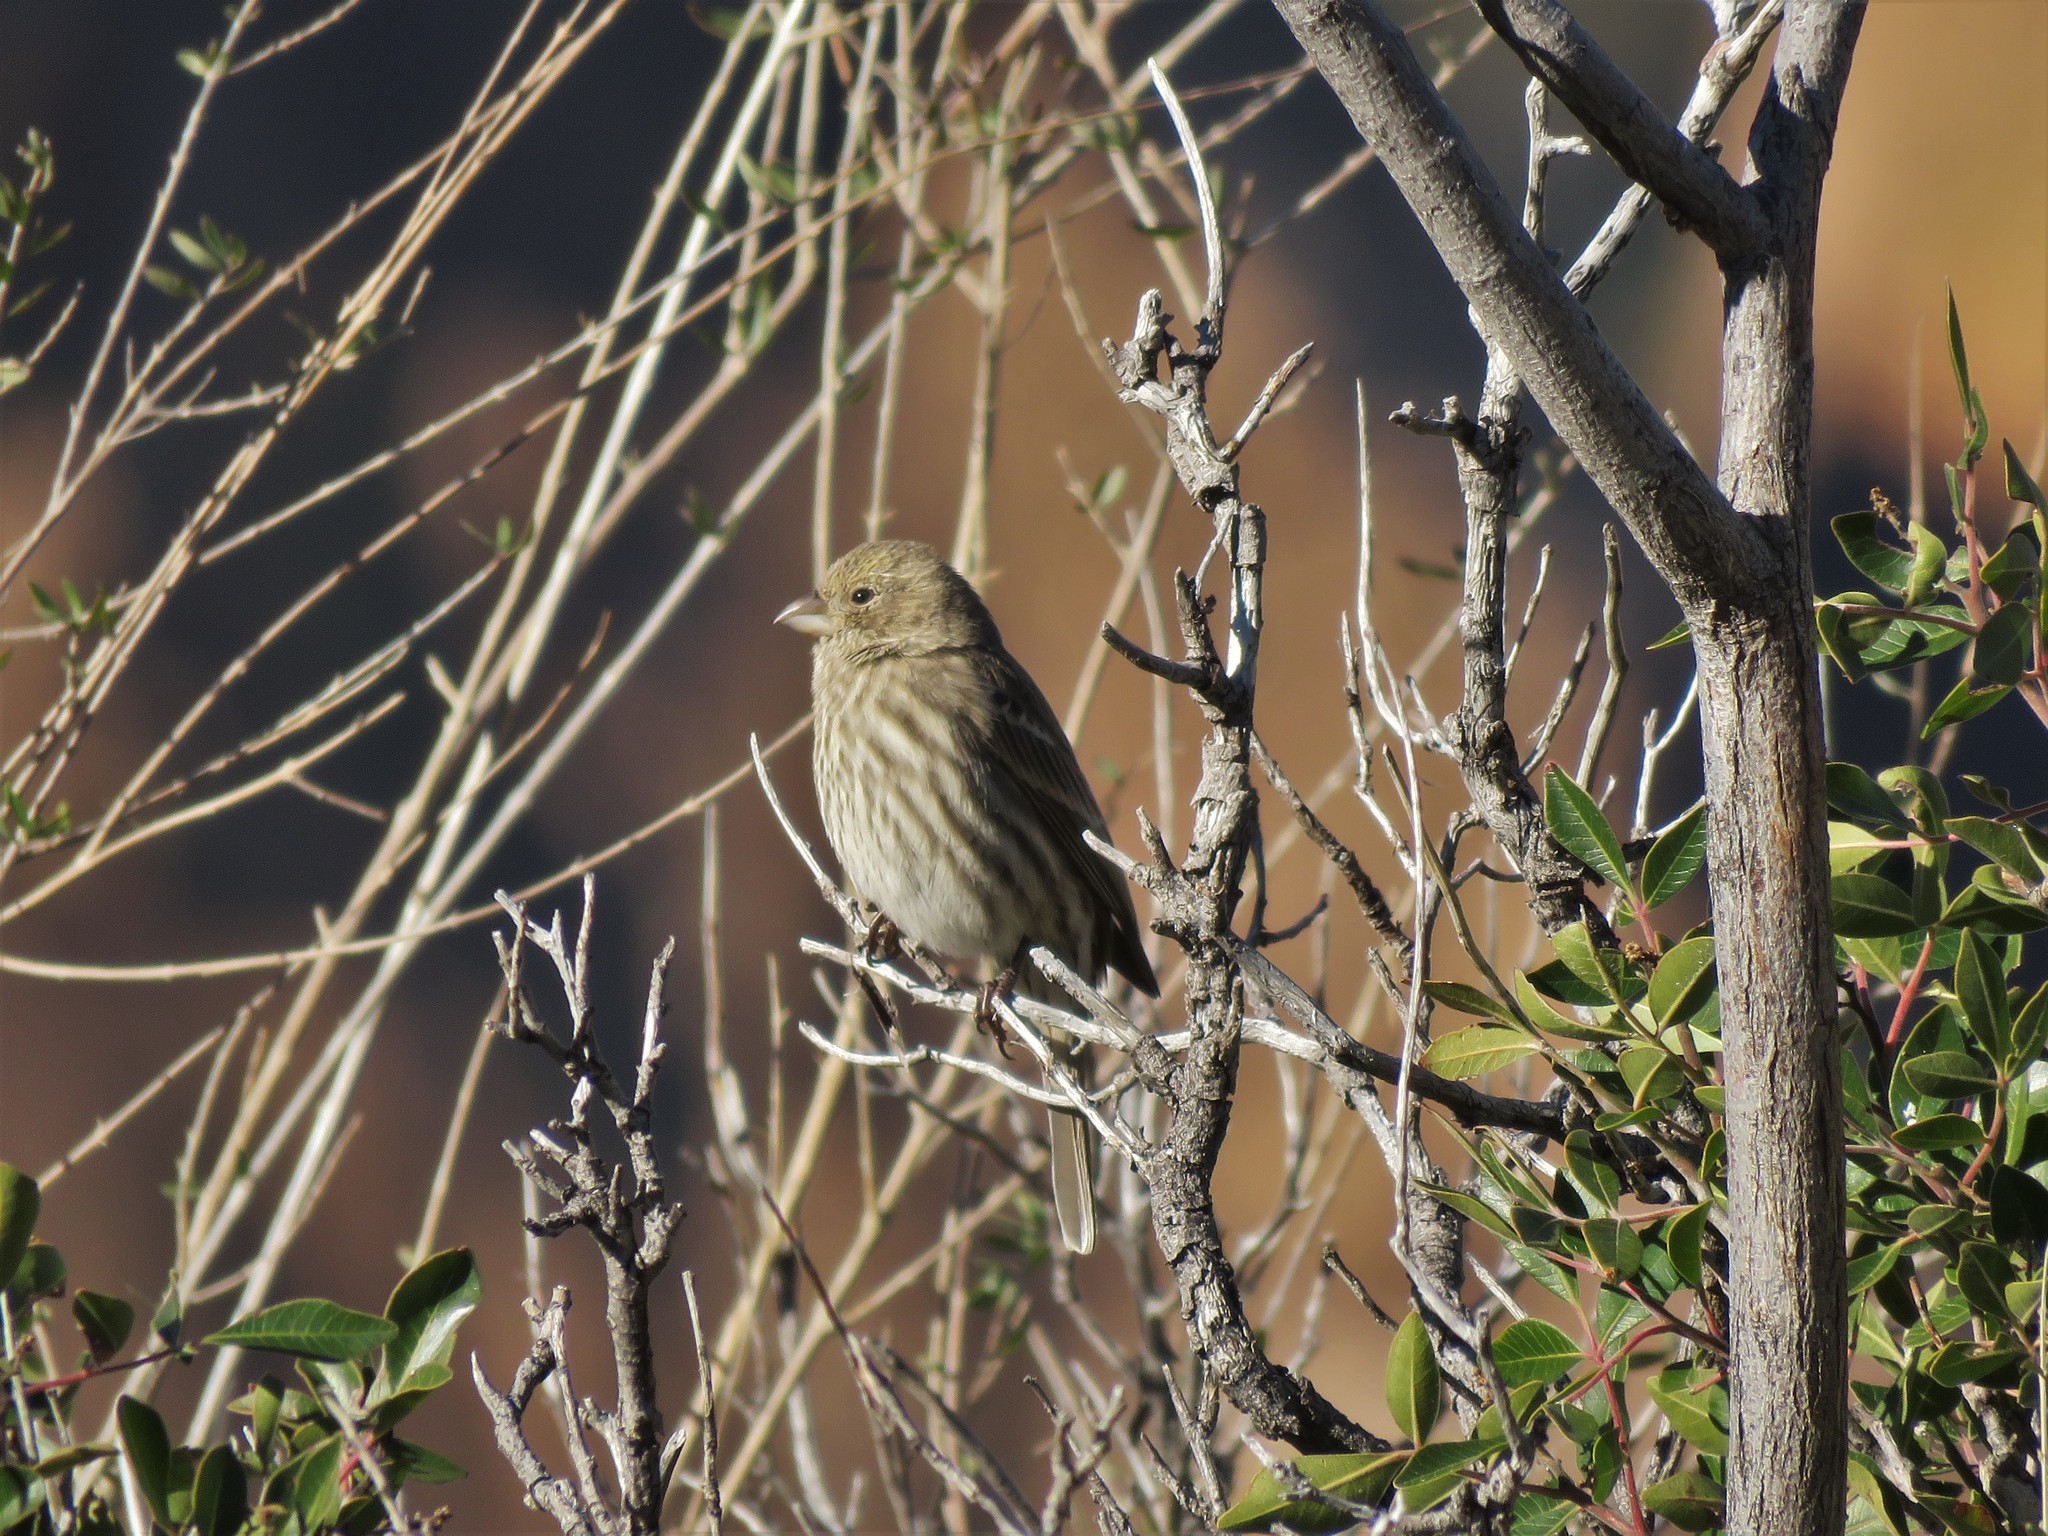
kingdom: Animalia
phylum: Chordata
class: Aves
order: Passeriformes
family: Fringillidae
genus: Haemorhous
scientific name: Haemorhous mexicanus
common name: House finch
